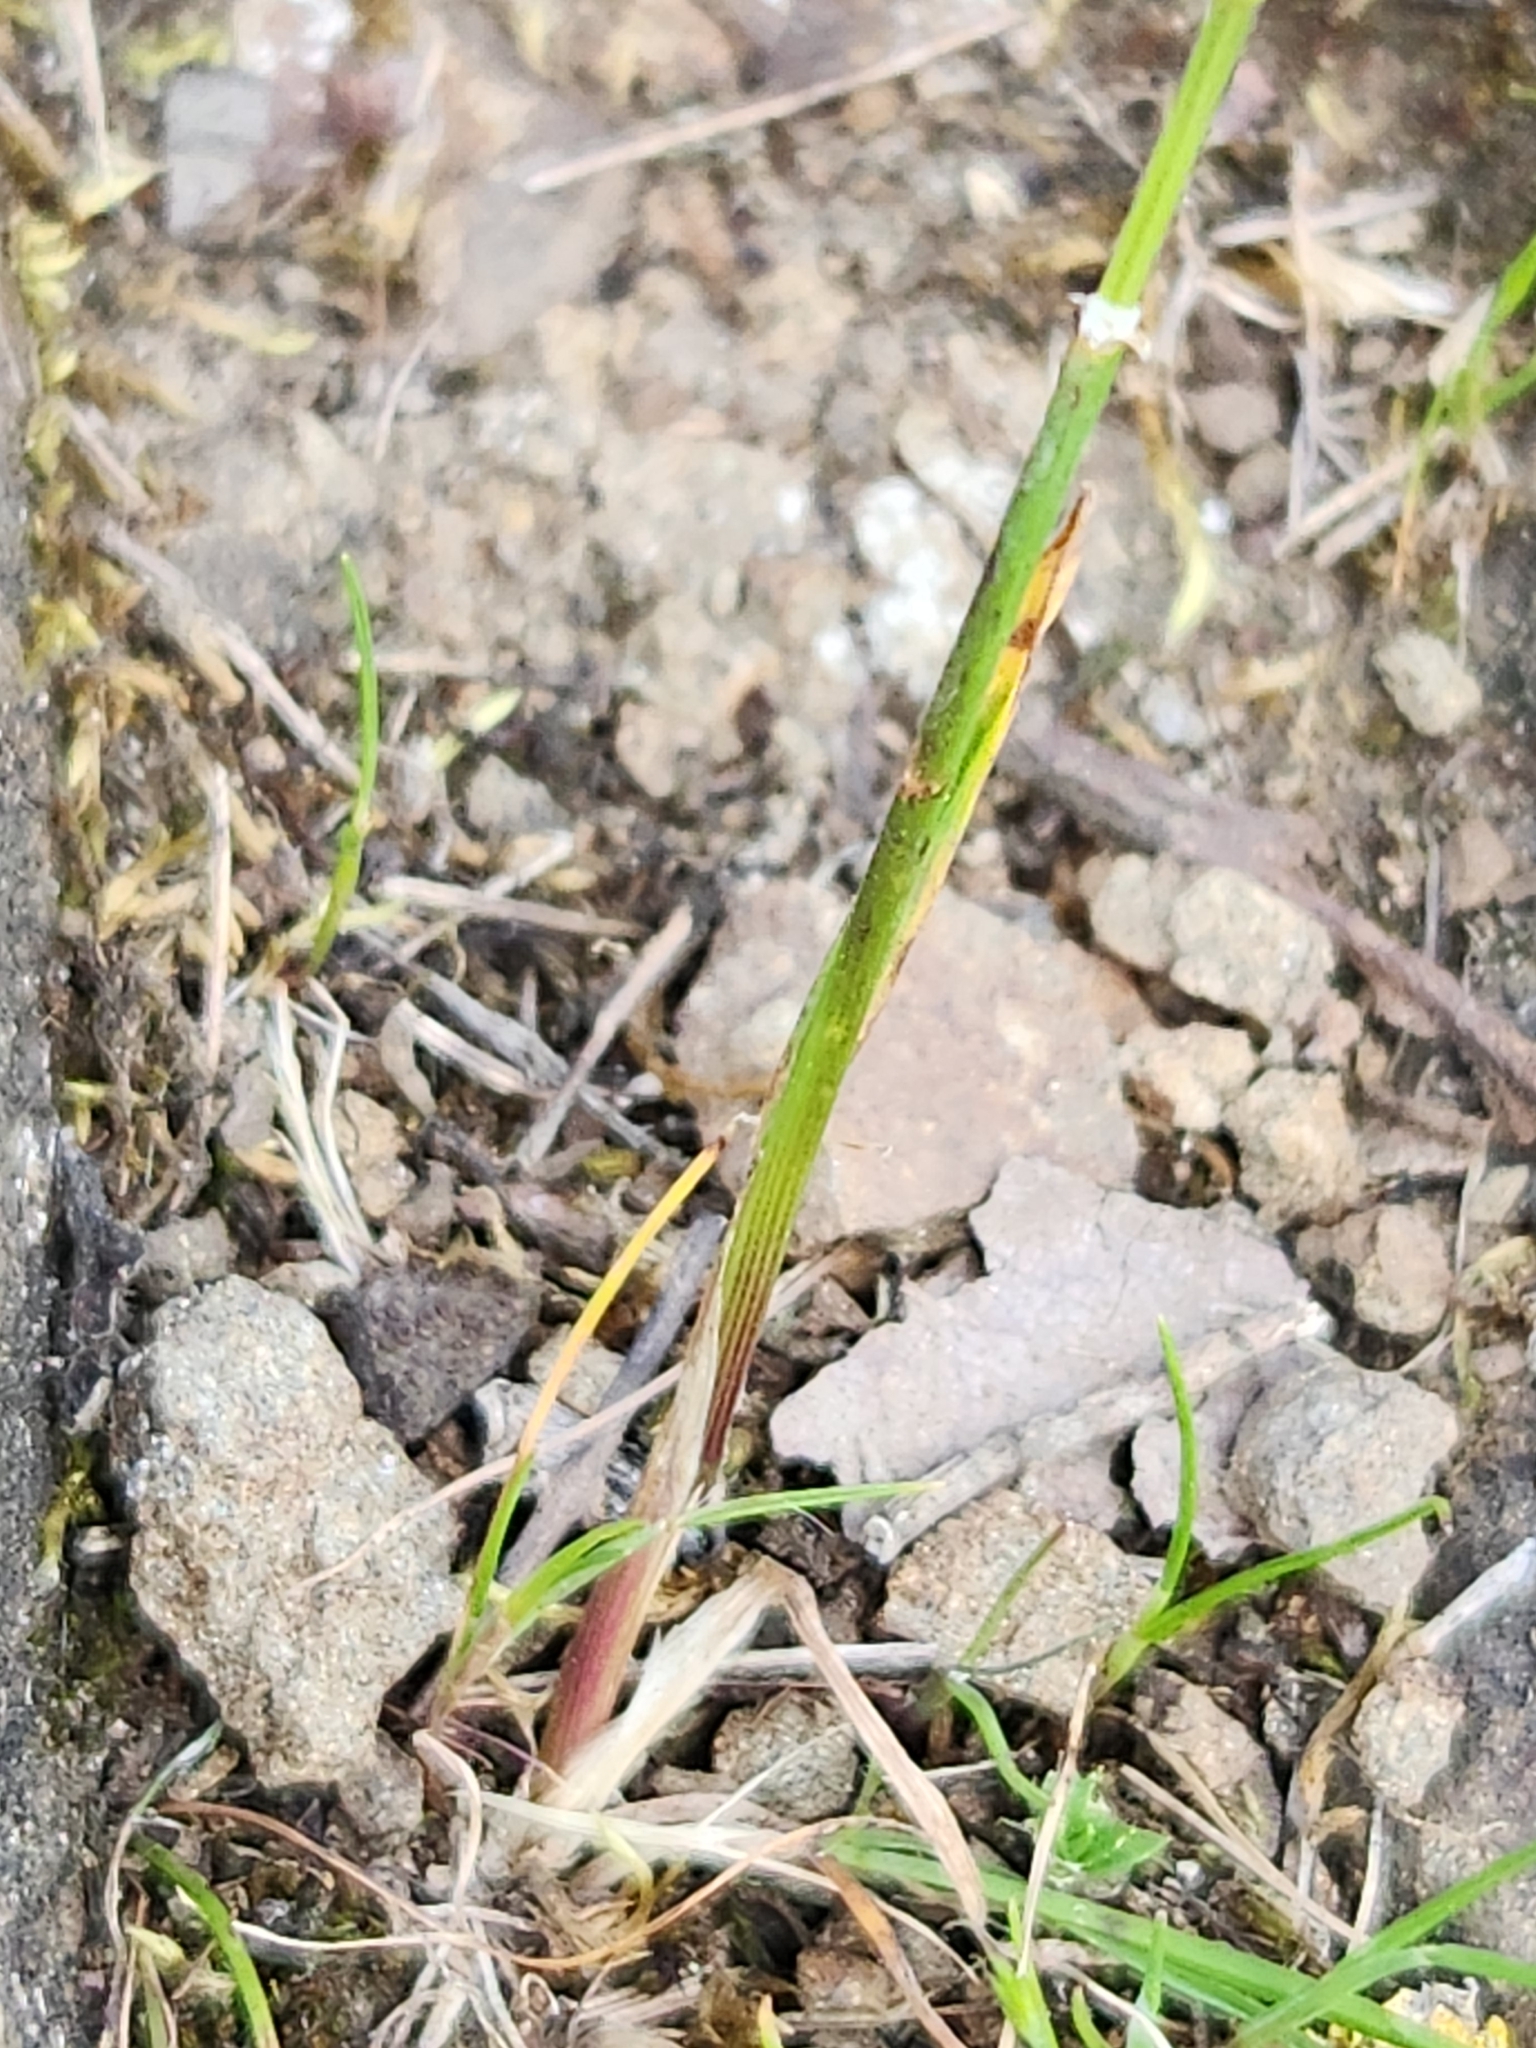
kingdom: Plantae
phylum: Tracheophyta
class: Liliopsida
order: Poales
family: Poaceae
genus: Poa
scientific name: Poa bulbosa
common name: Bulbous bluegrass
